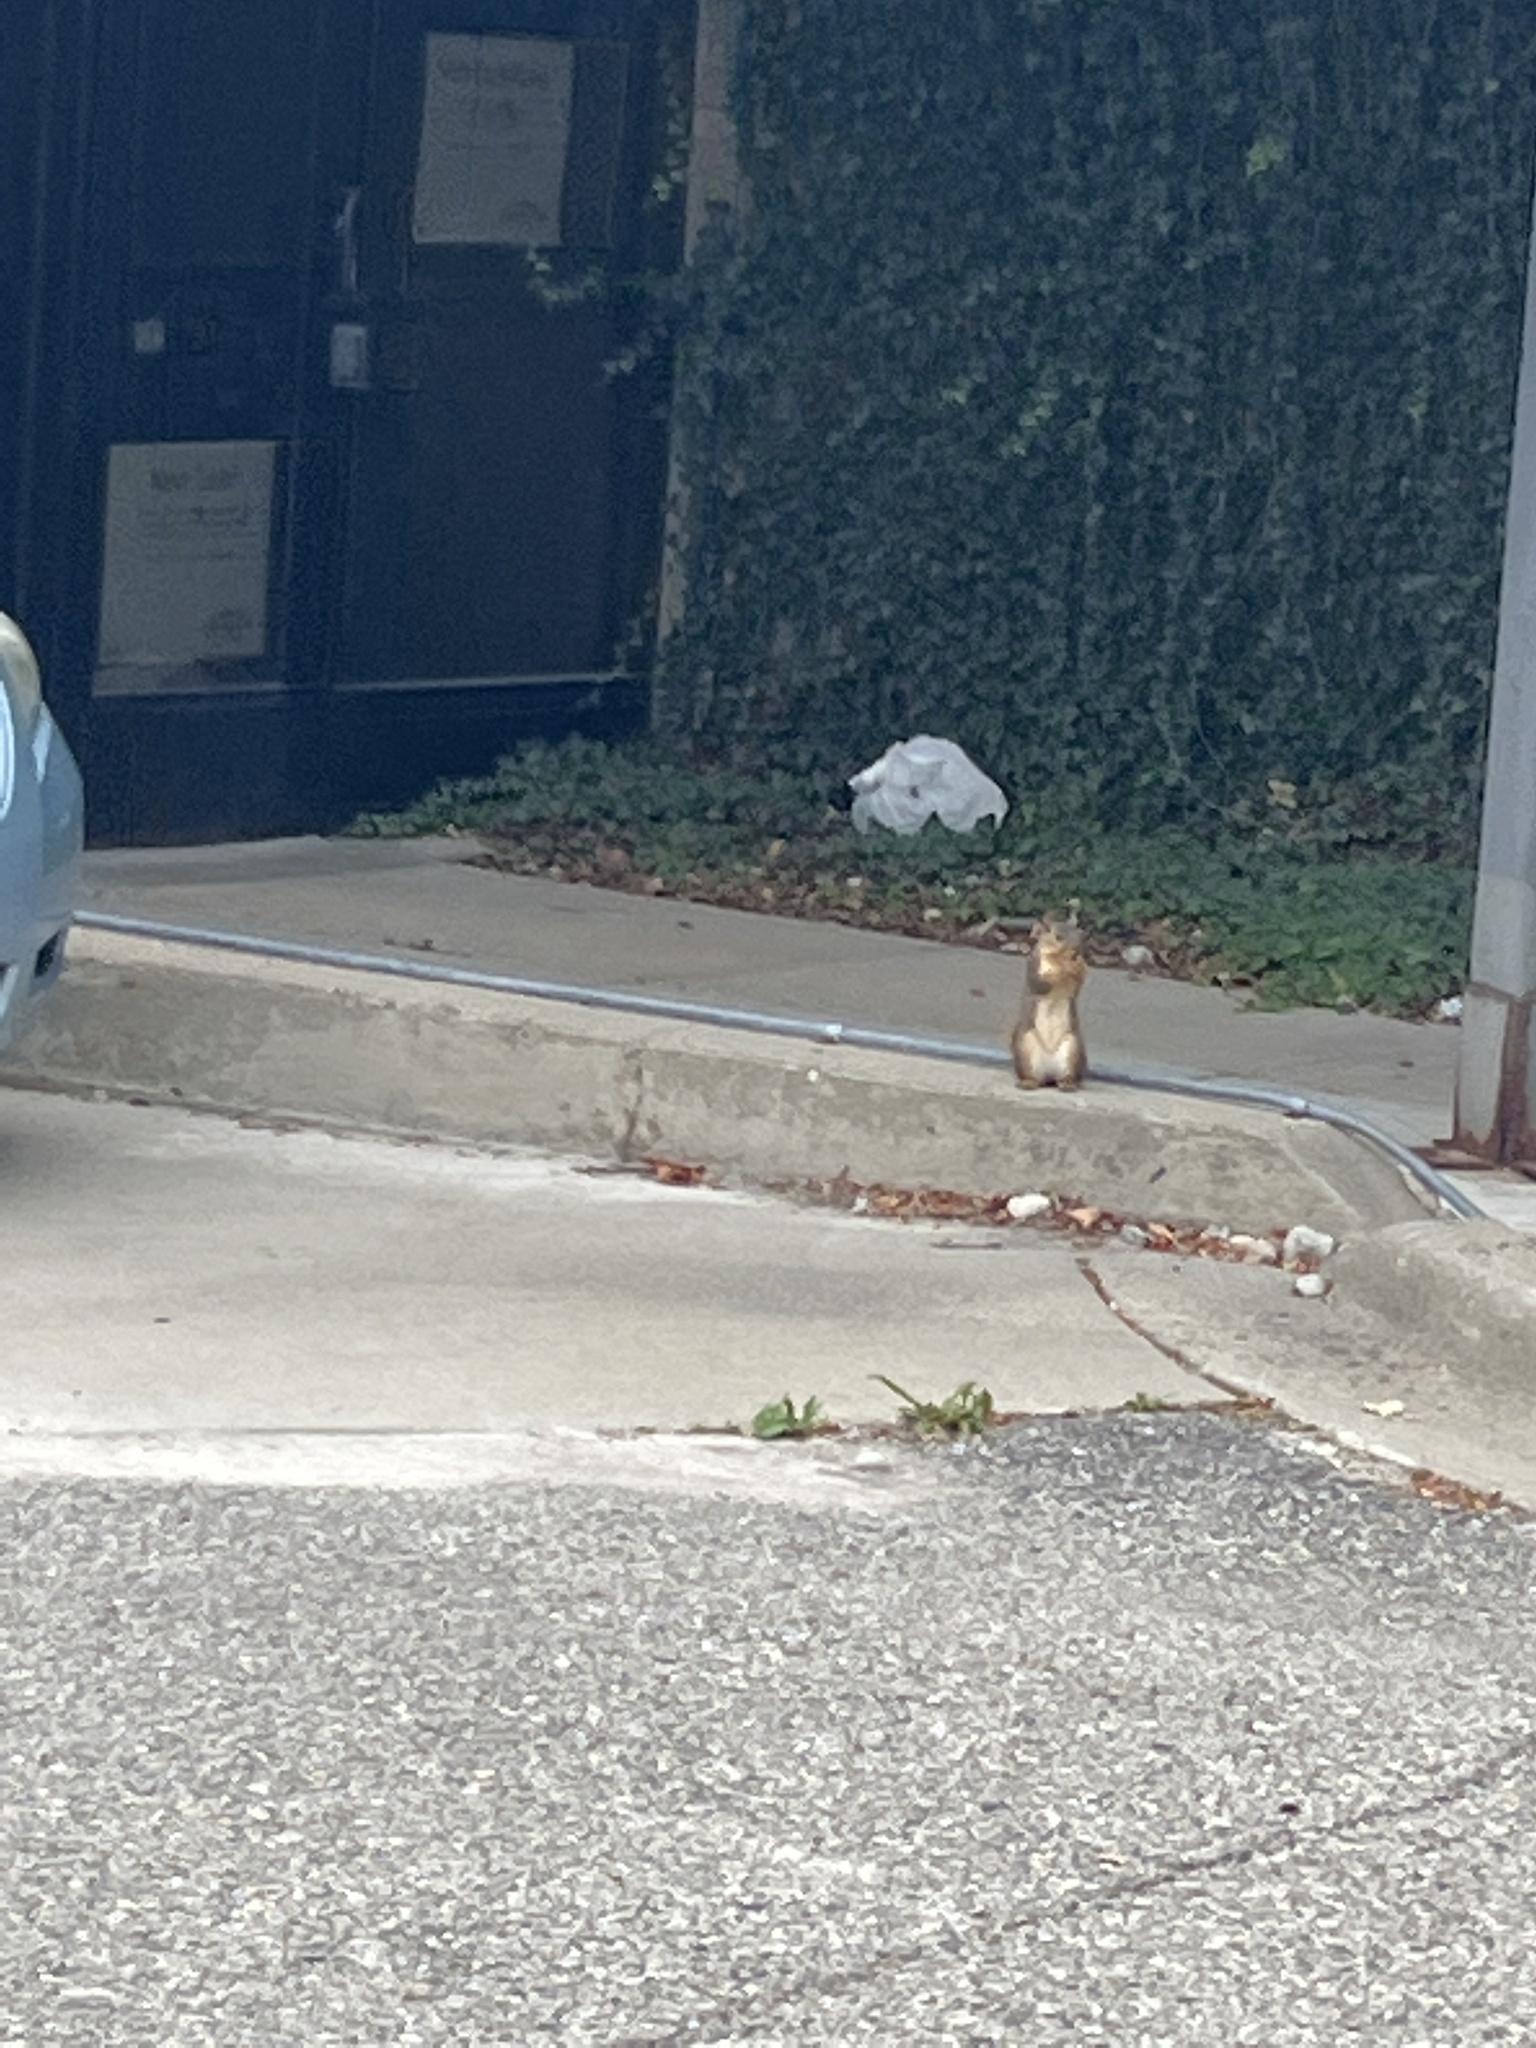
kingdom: Animalia
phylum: Chordata
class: Mammalia
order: Rodentia
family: Sciuridae
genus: Sciurus
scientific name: Sciurus niger
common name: Fox squirrel
